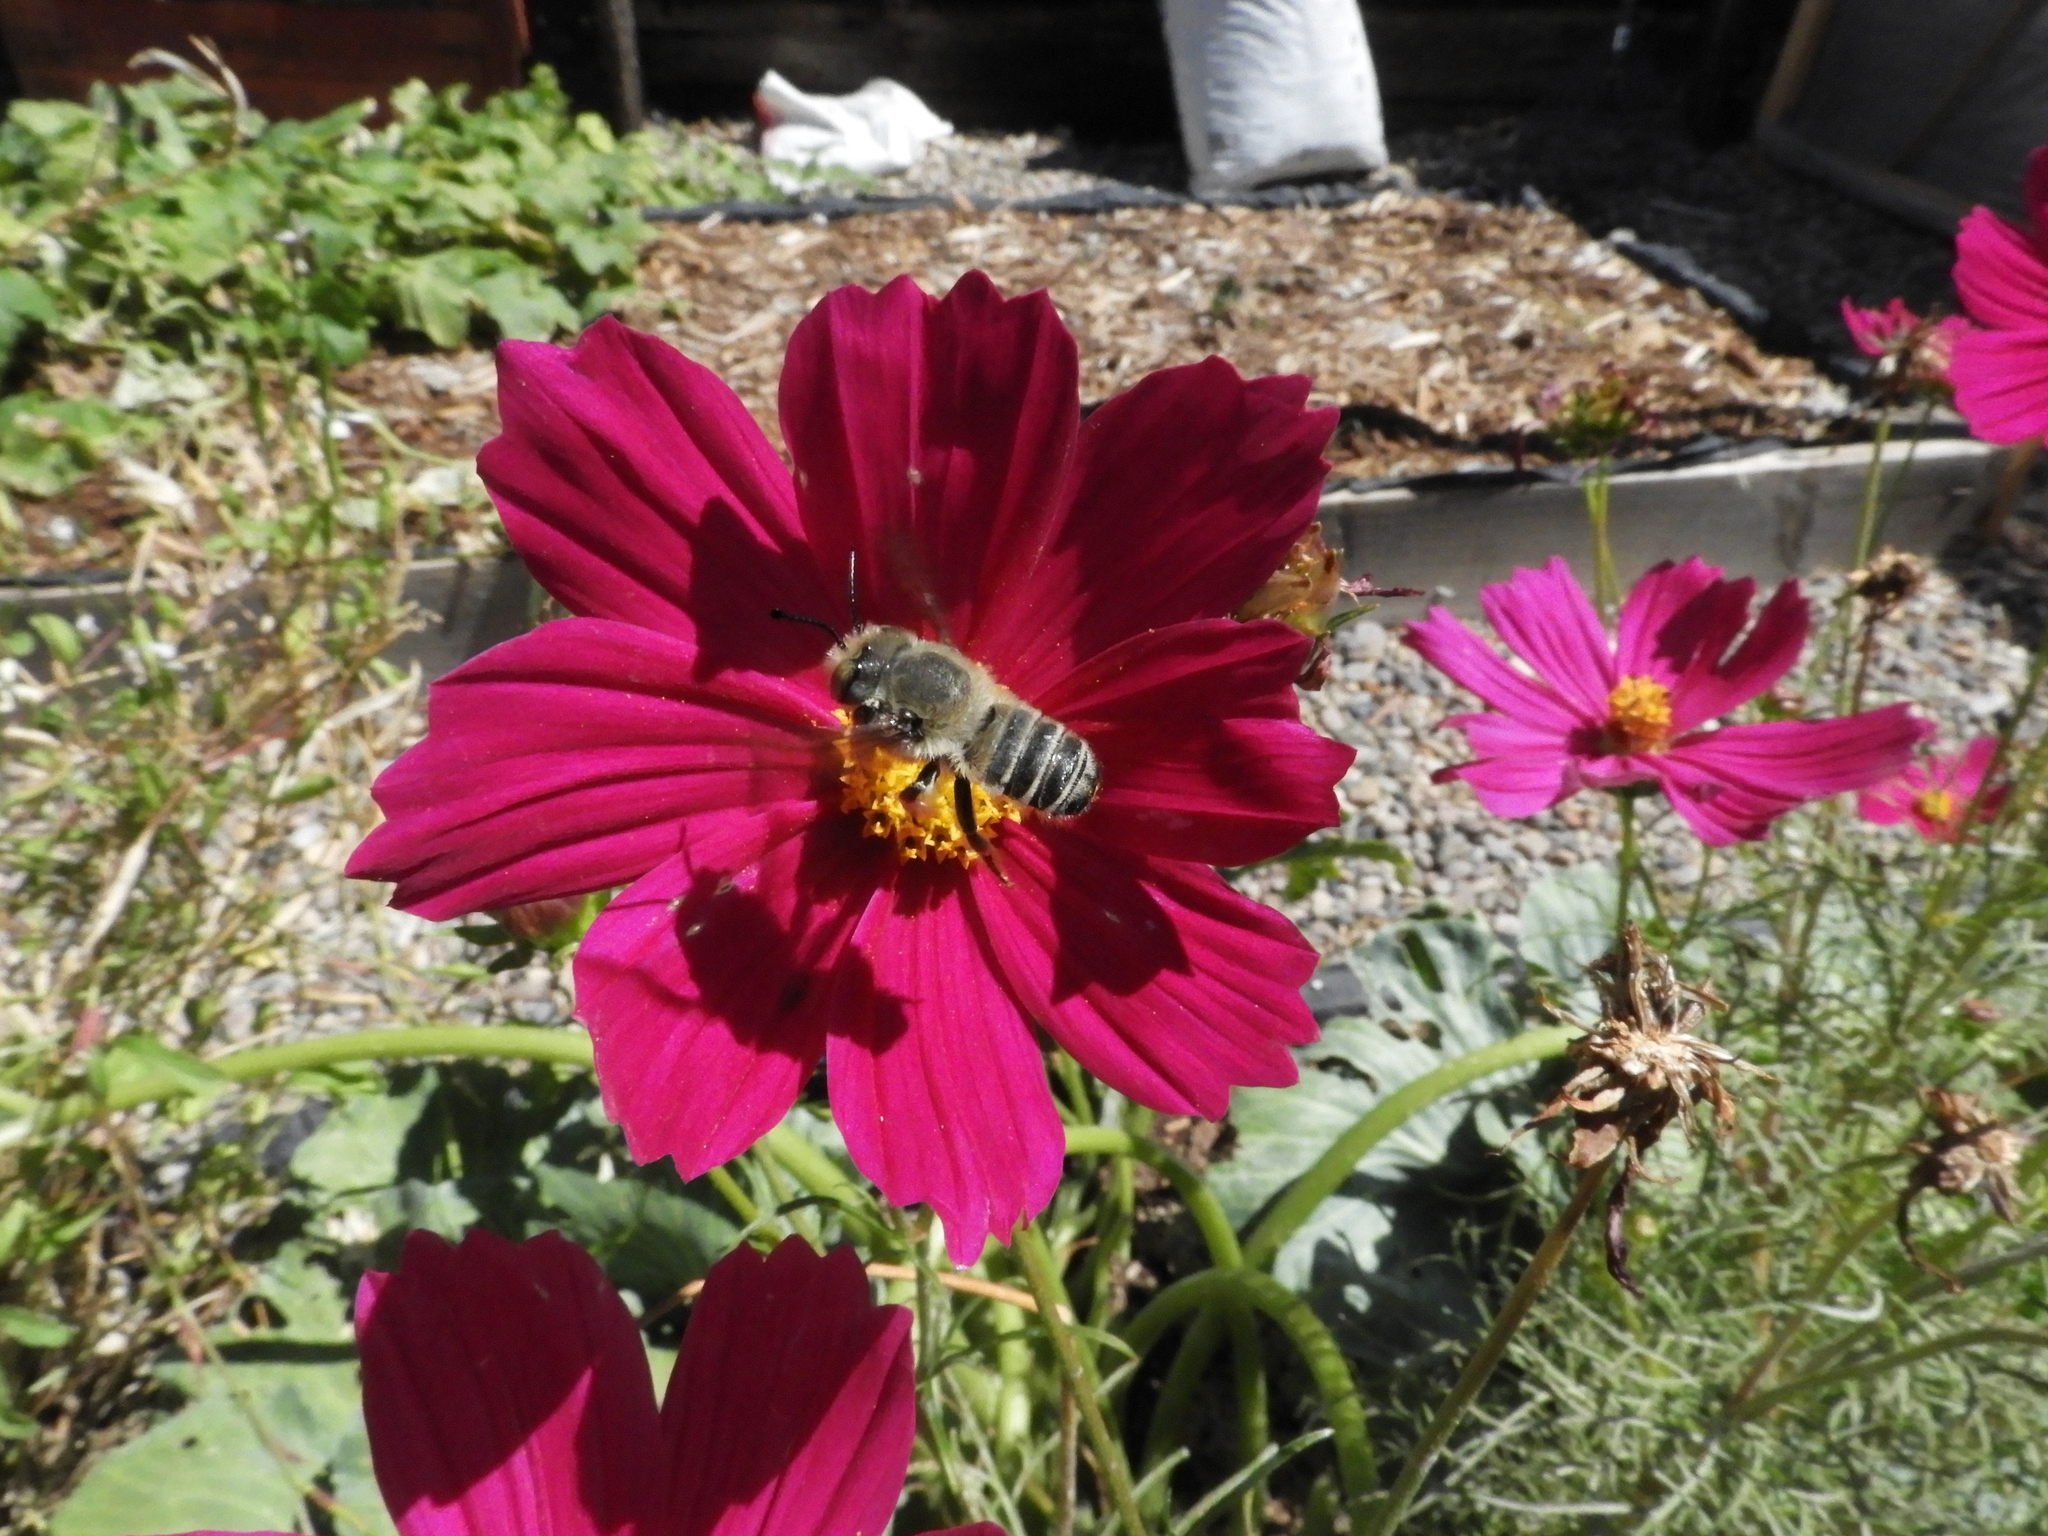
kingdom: Animalia
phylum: Arthropoda
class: Insecta
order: Hymenoptera
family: Megachilidae
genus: Megachile
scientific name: Megachile
